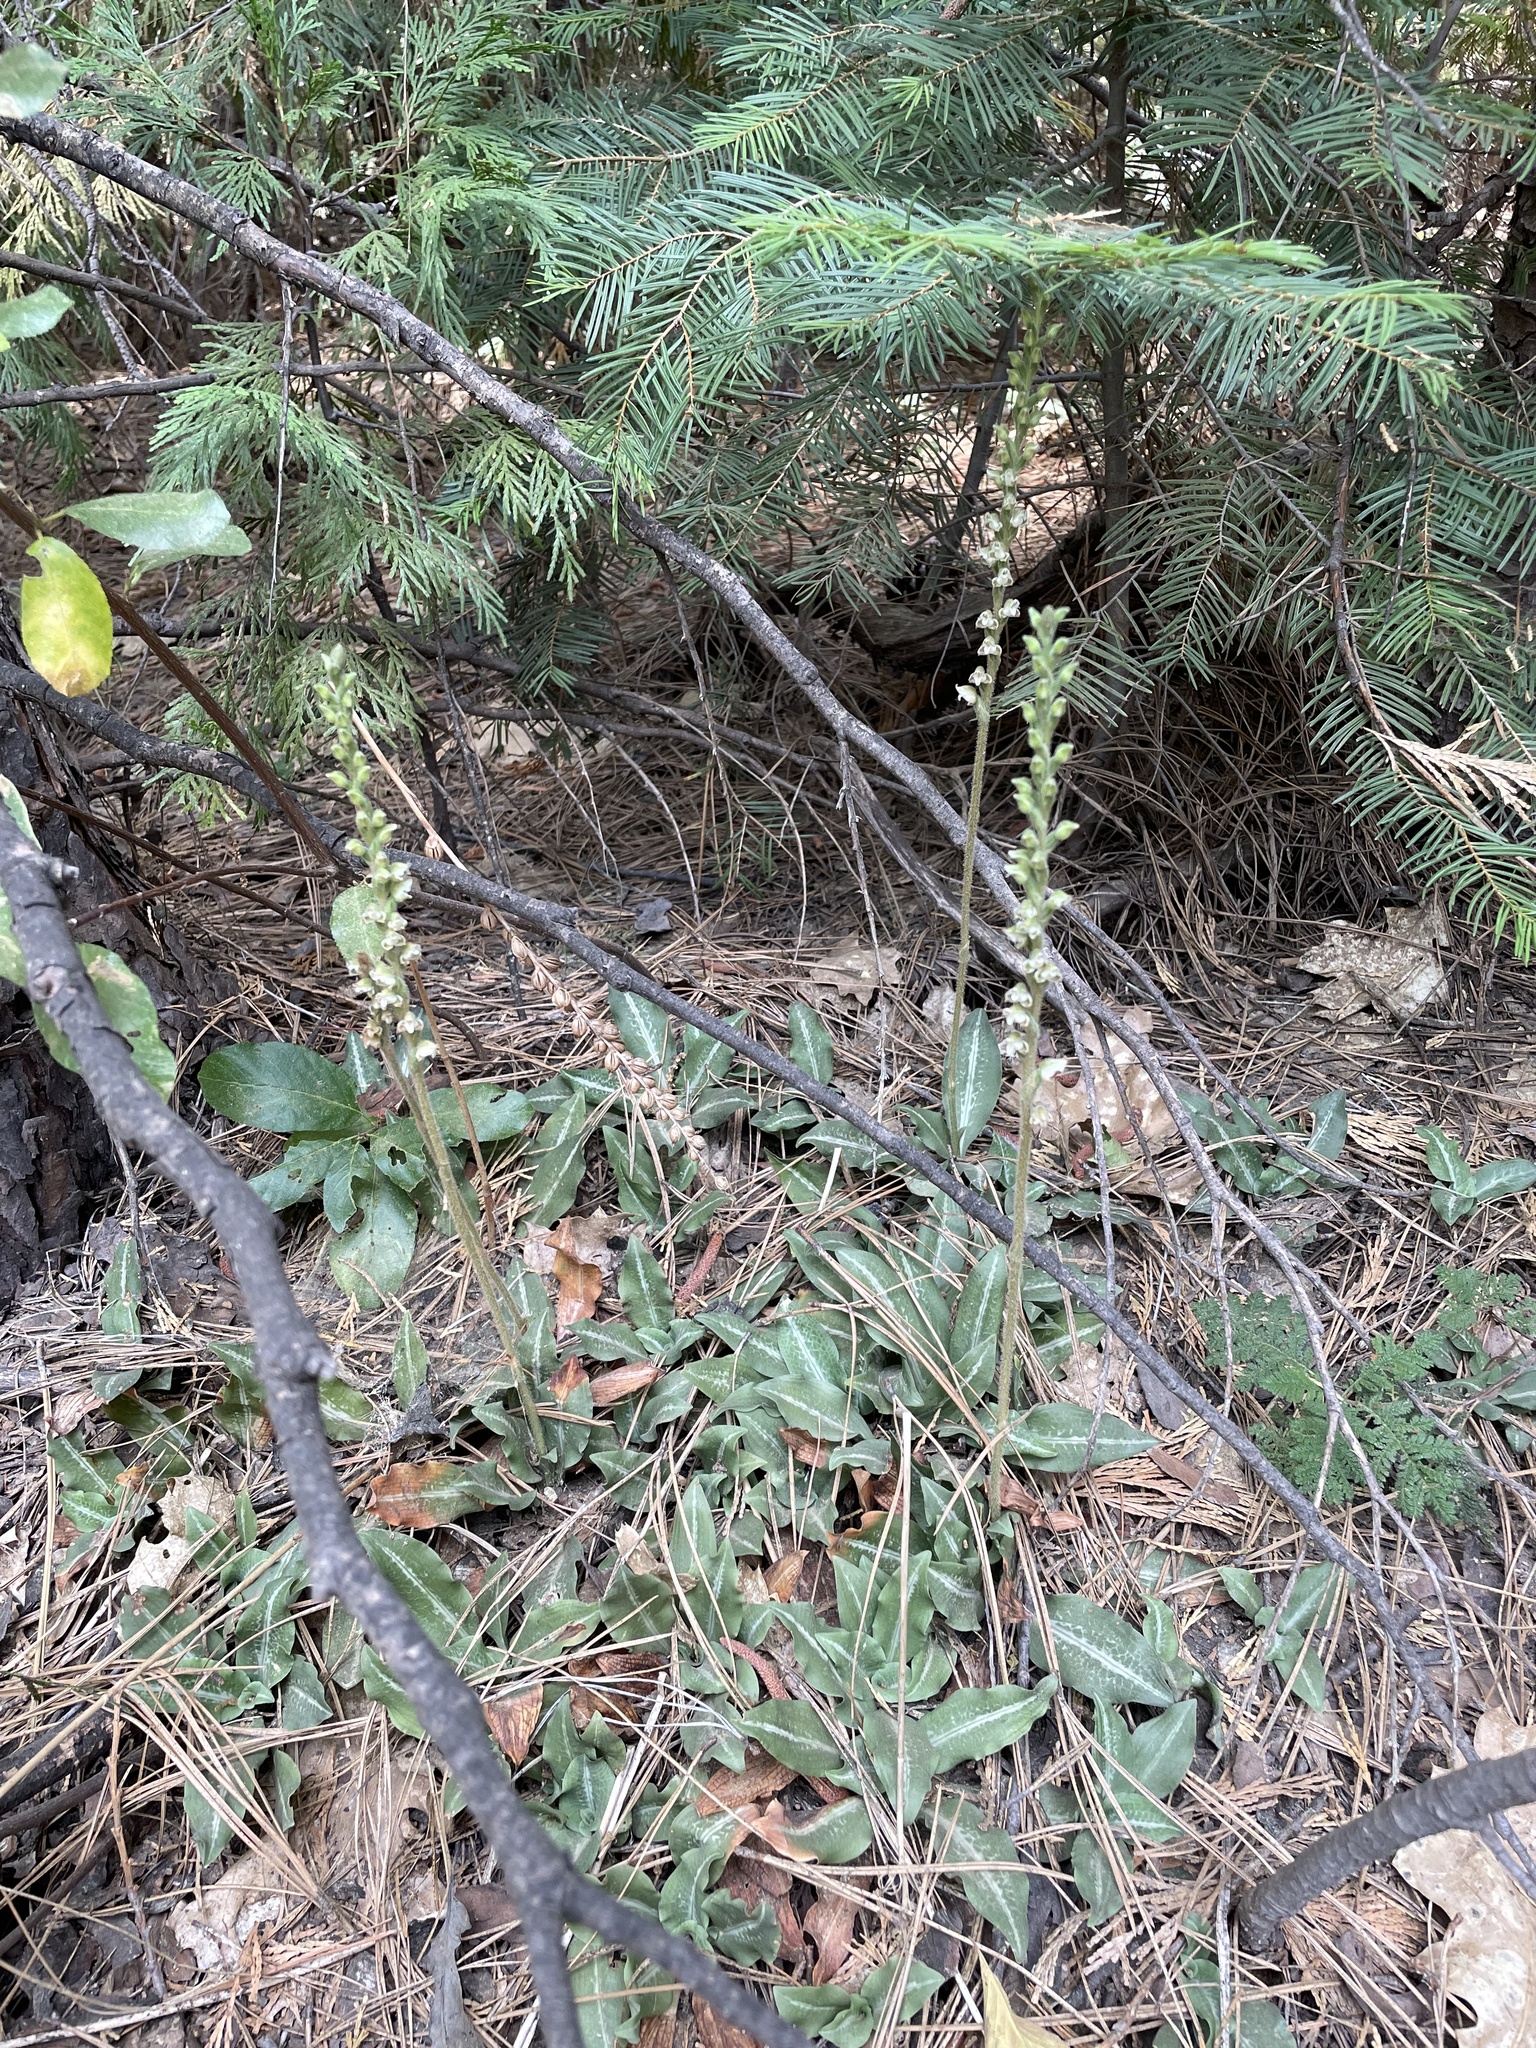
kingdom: Plantae
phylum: Tracheophyta
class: Liliopsida
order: Asparagales
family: Orchidaceae
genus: Goodyera
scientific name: Goodyera oblongifolia
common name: Giant rattlesnake-plantain
